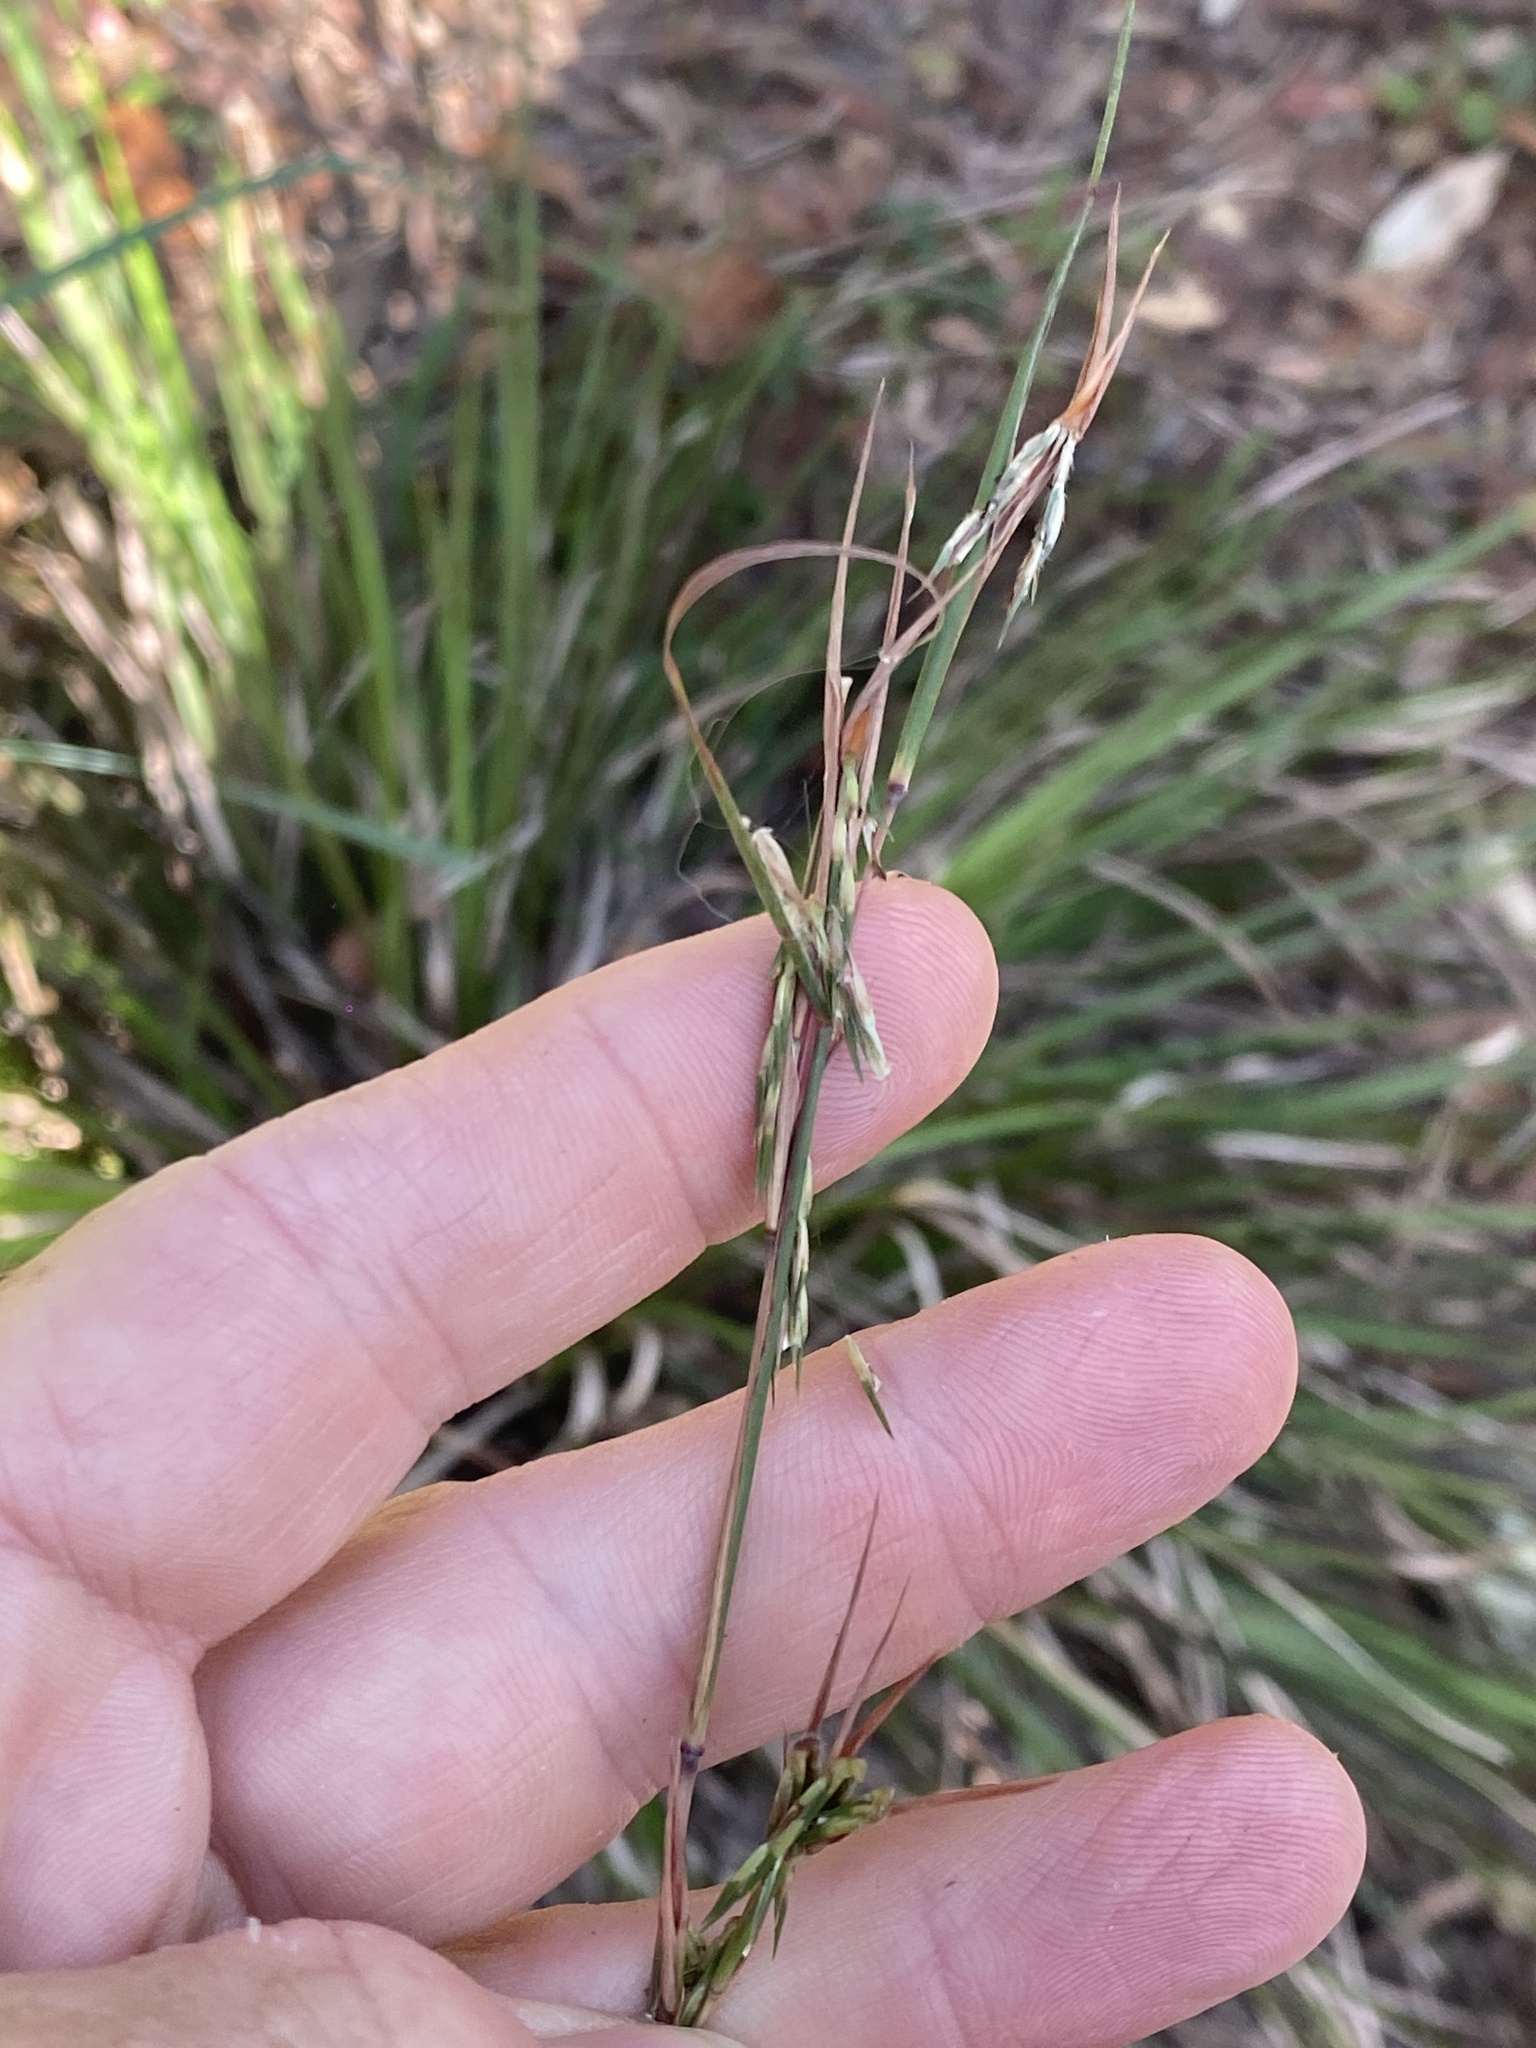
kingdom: Plantae
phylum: Tracheophyta
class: Liliopsida
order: Poales
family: Poaceae
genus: Cymbopogon
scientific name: Cymbopogon refractus
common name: Barbwire grass
